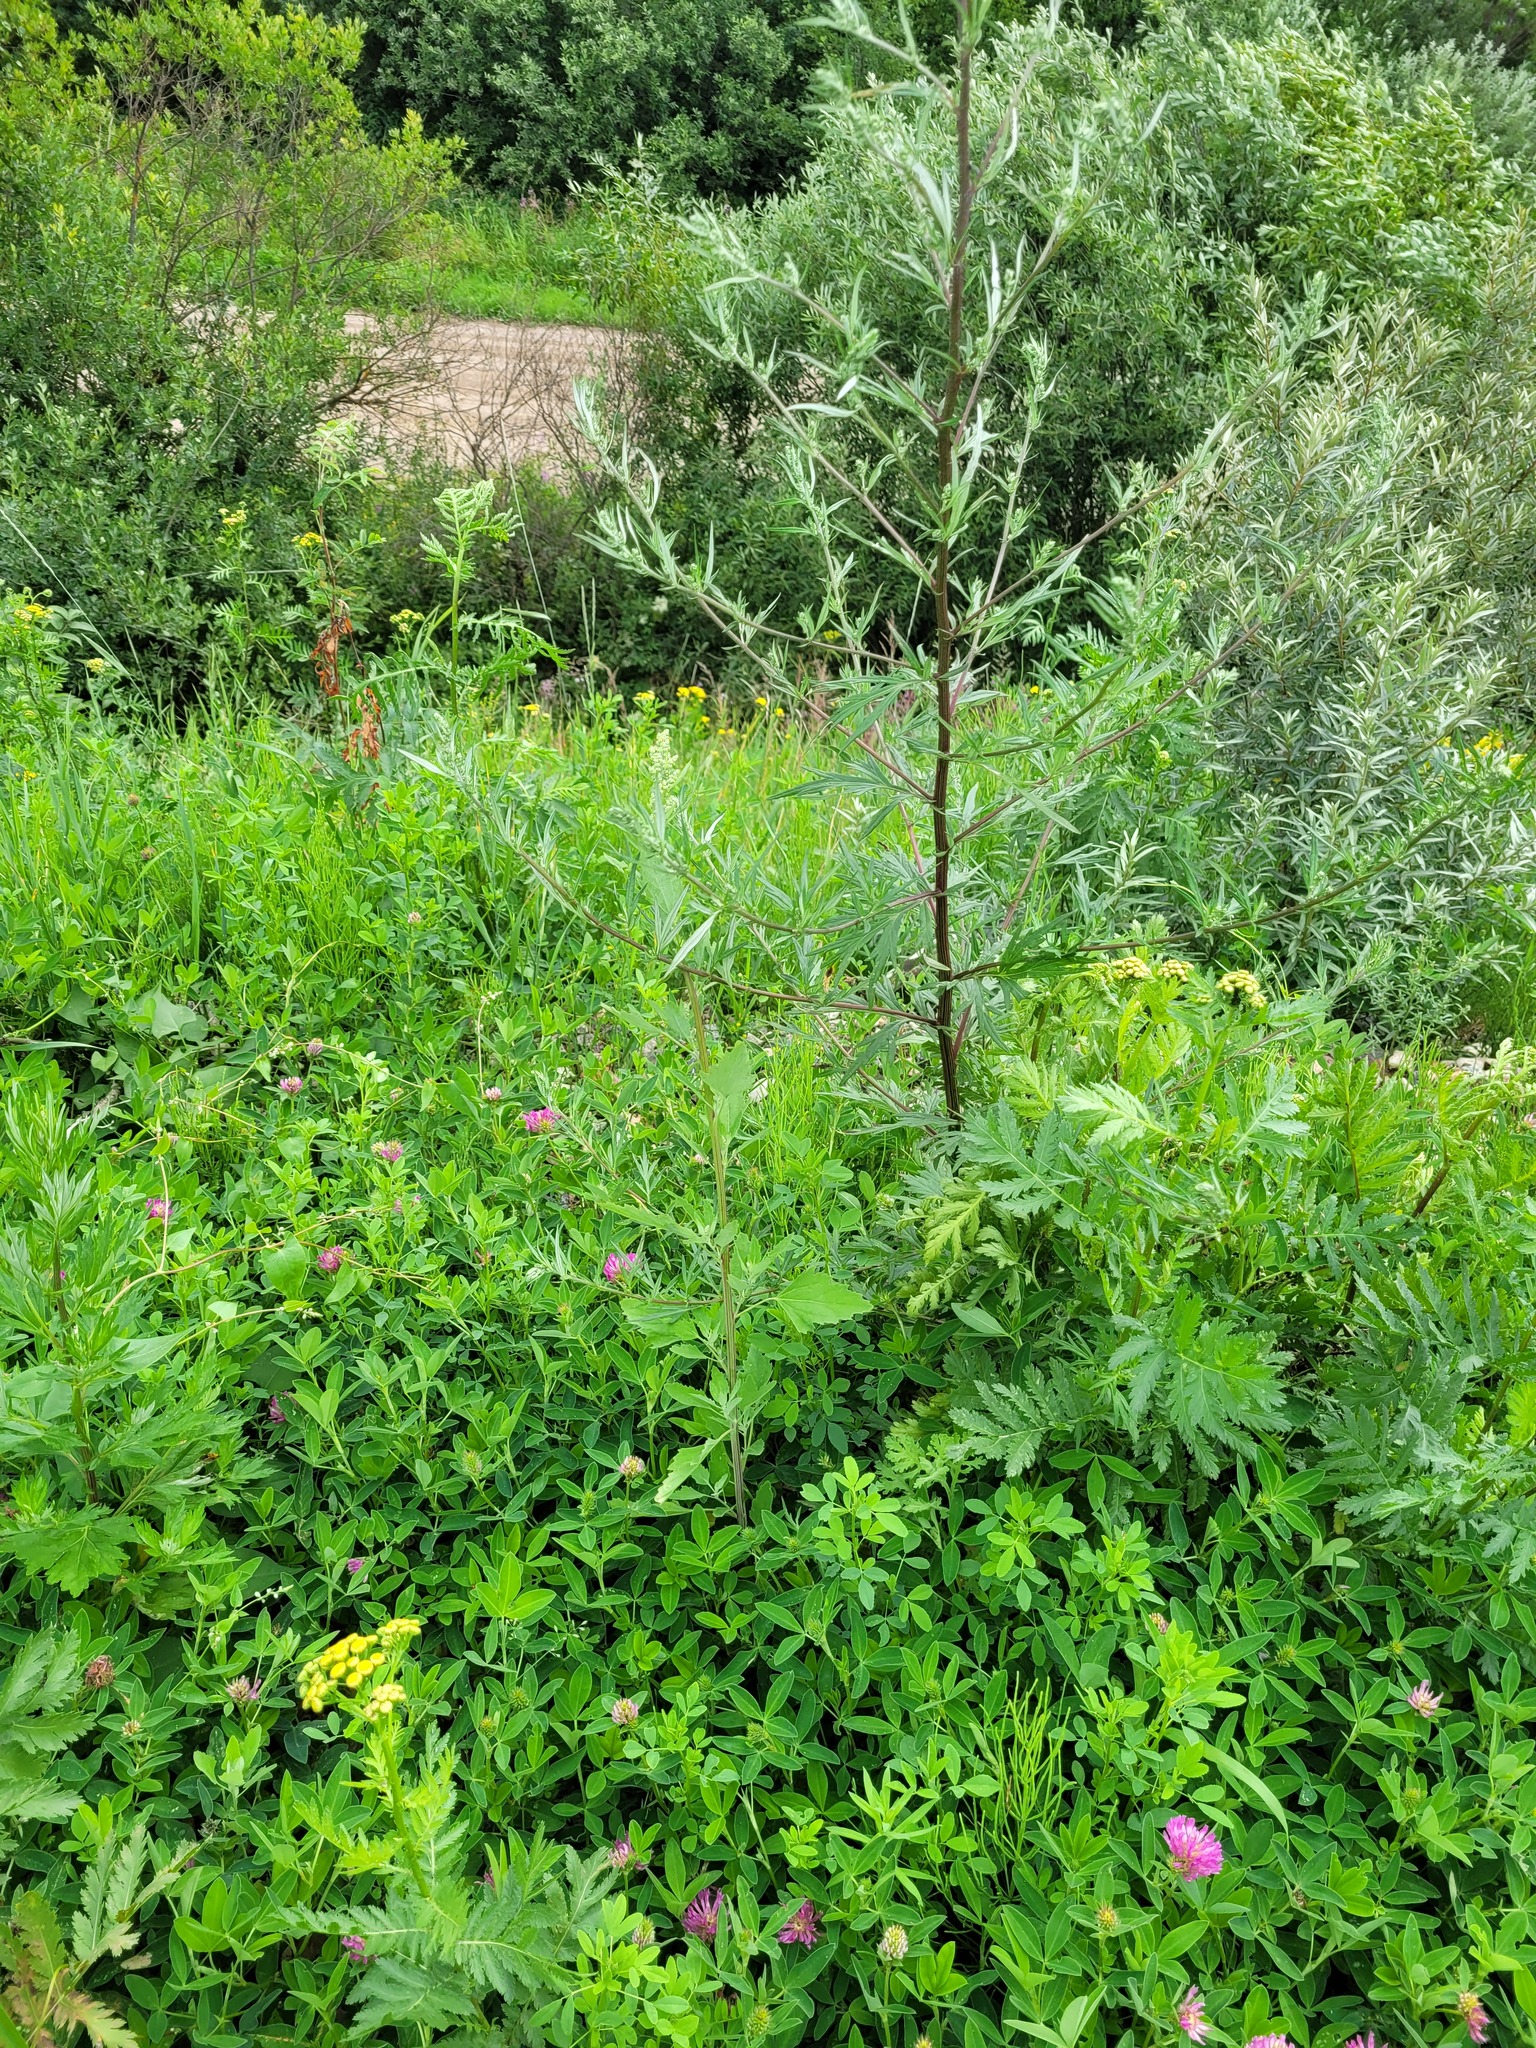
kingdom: Plantae
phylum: Tracheophyta
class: Magnoliopsida
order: Caryophyllales
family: Amaranthaceae
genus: Chenopodium
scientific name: Chenopodium album
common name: Fat-hen
